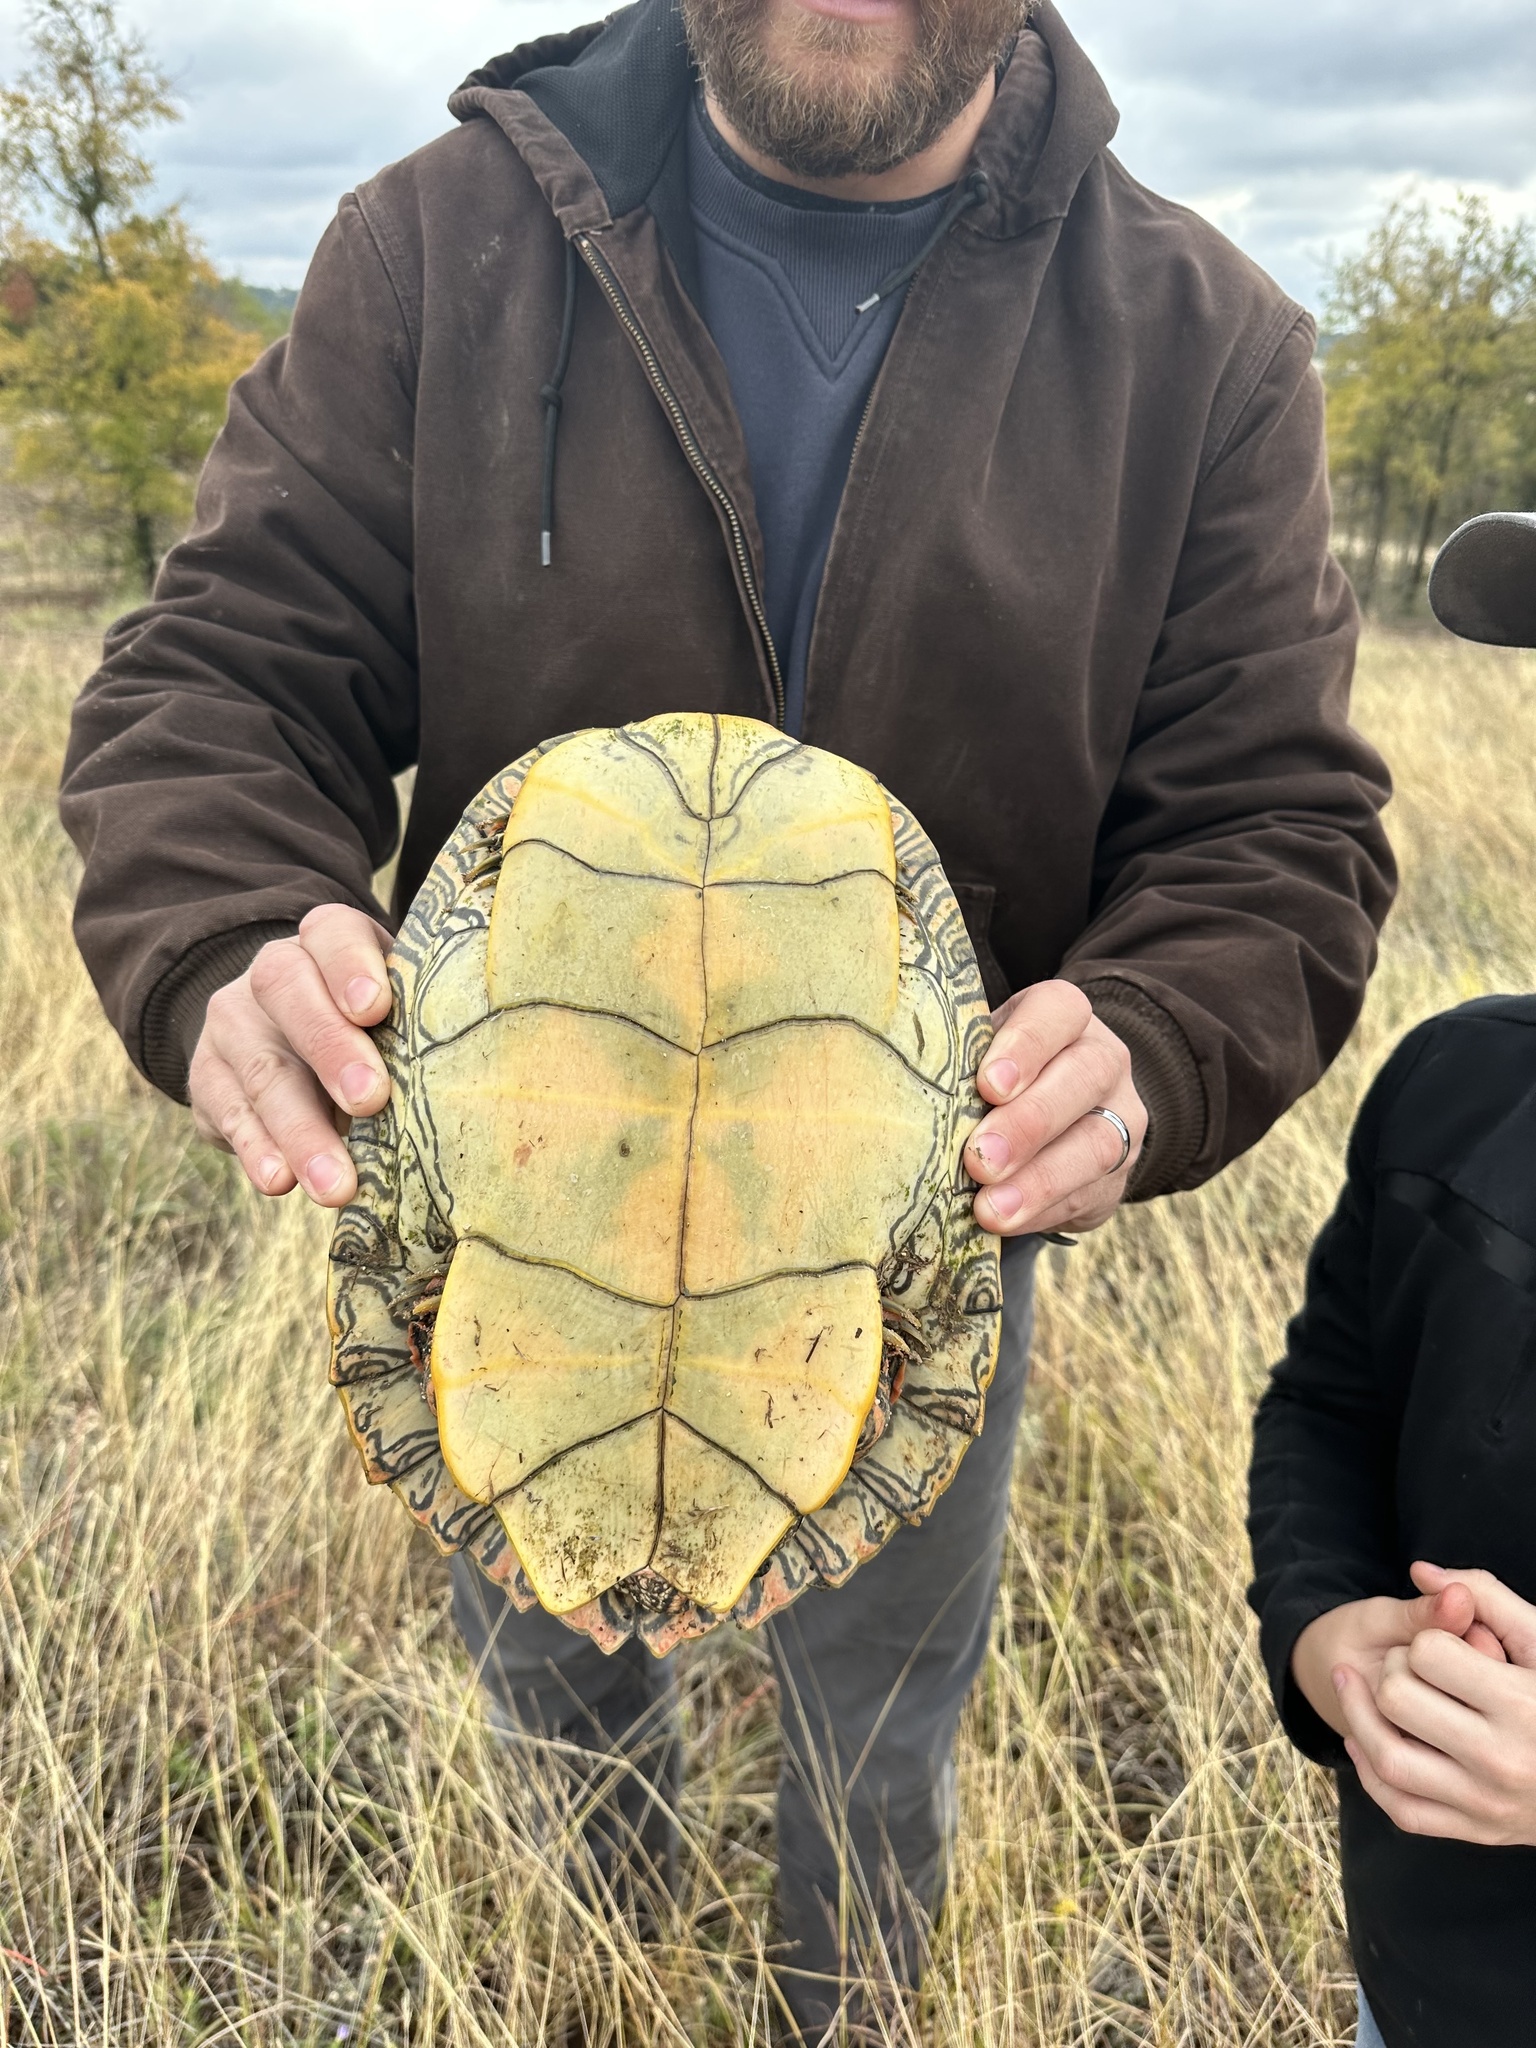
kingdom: Animalia
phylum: Chordata
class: Testudines
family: Emydidae
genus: Pseudemys
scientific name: Pseudemys texana
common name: Texas river cooter
